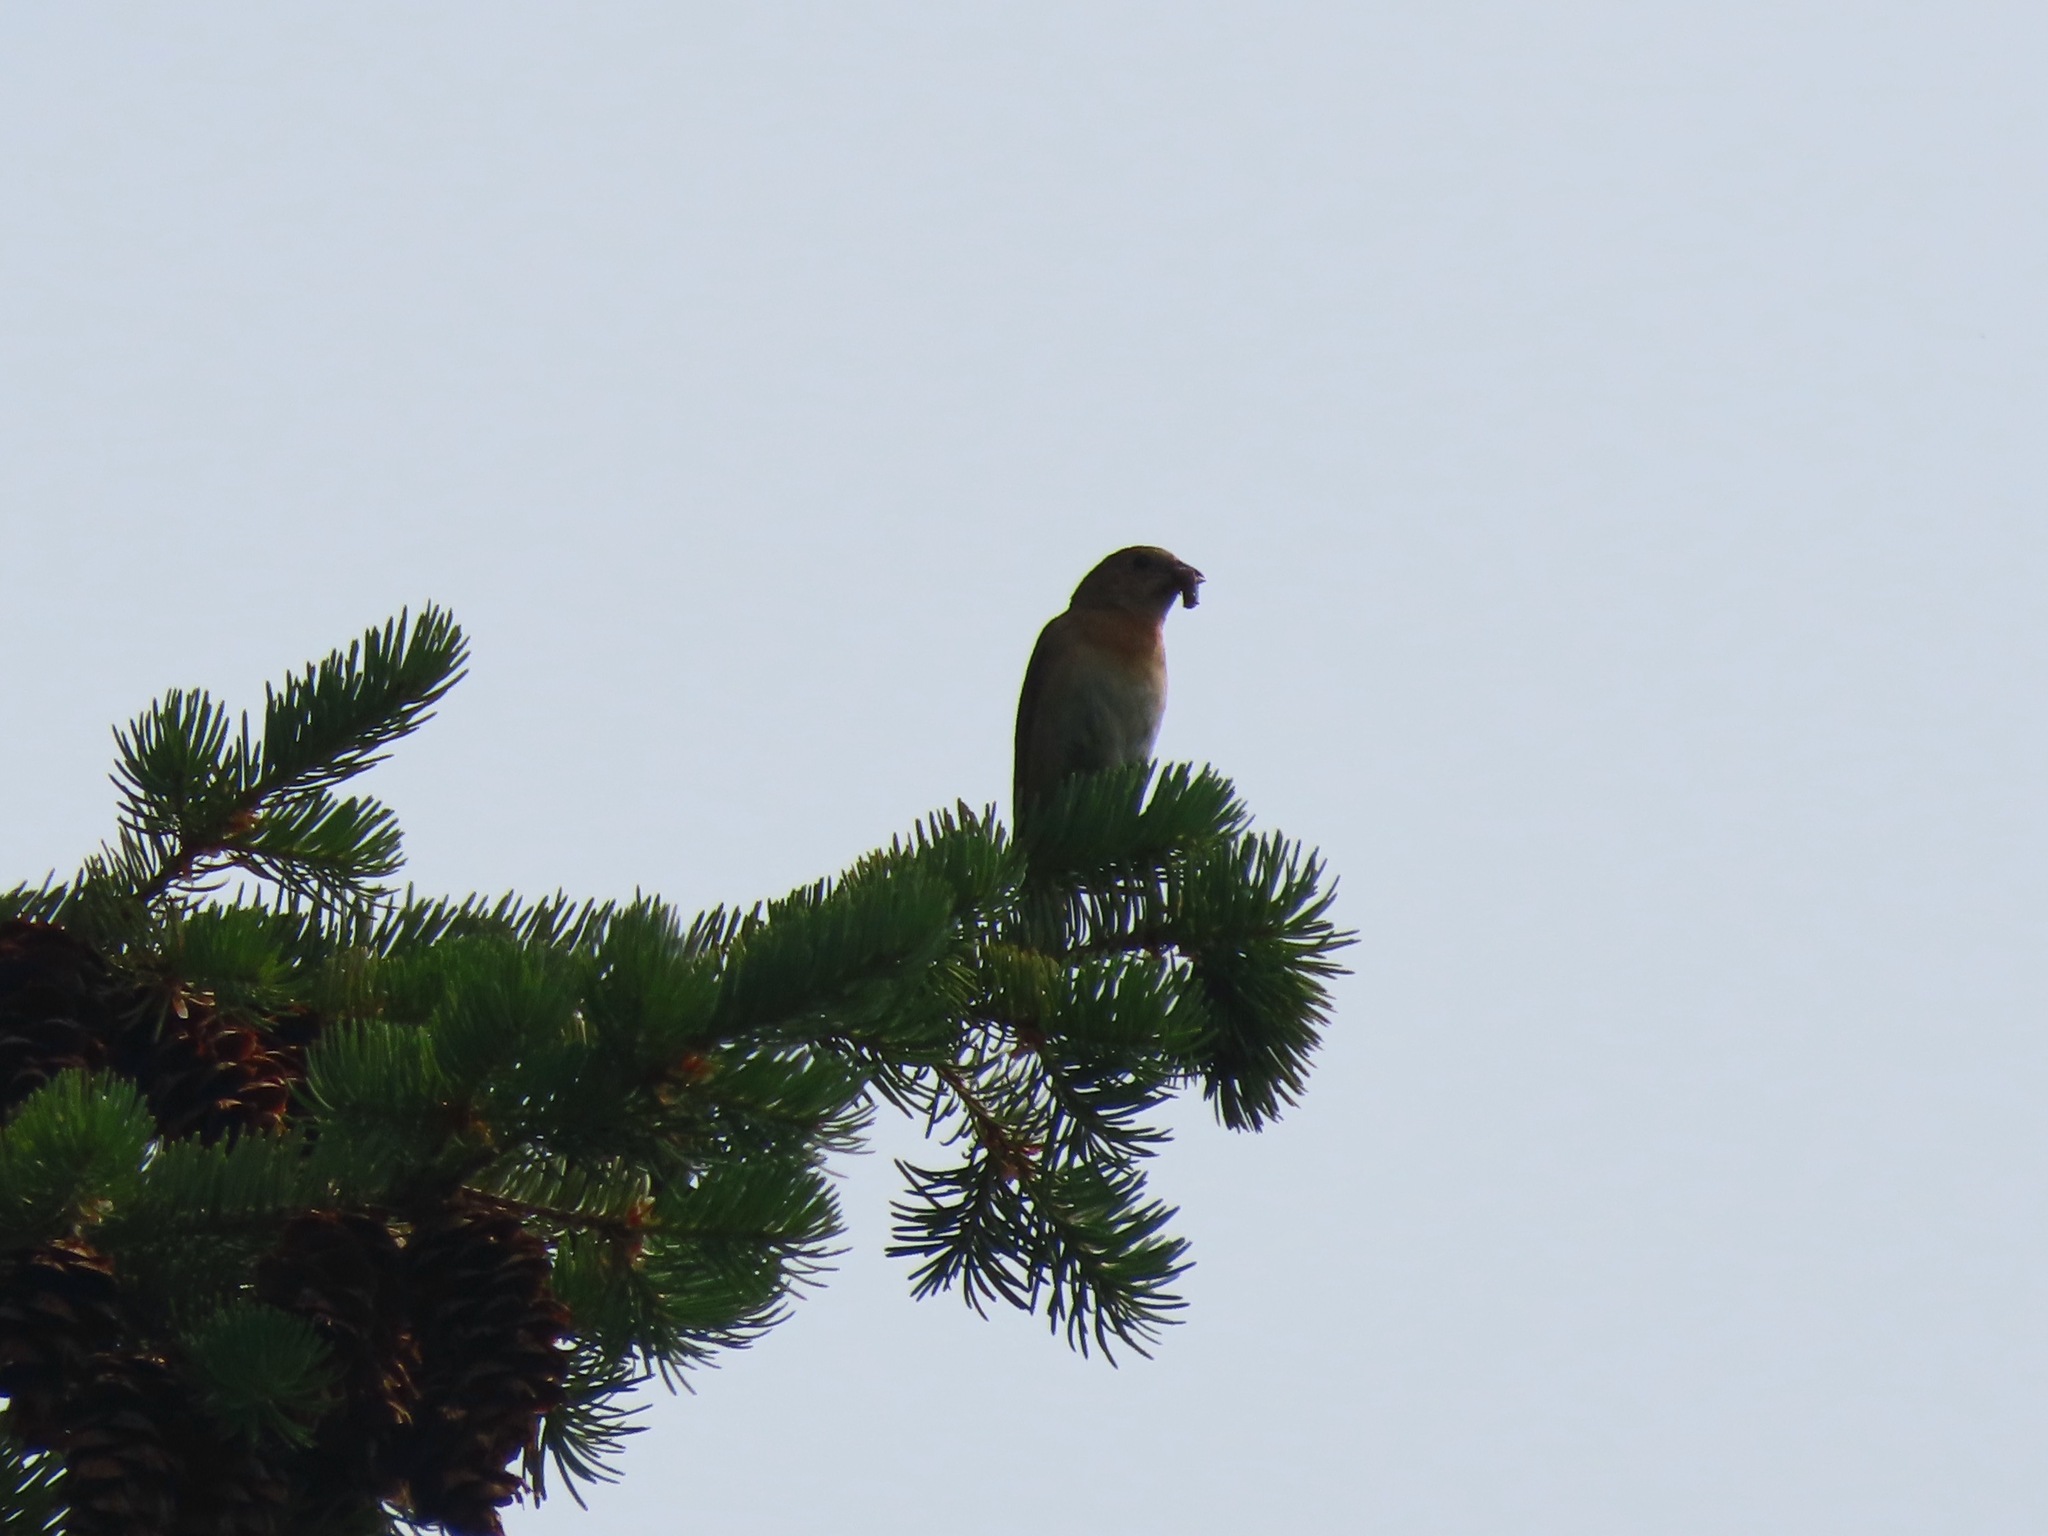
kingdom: Animalia
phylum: Chordata
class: Aves
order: Passeriformes
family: Cardinalidae
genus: Passerina
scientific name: Passerina amoena
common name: Lazuli bunting
